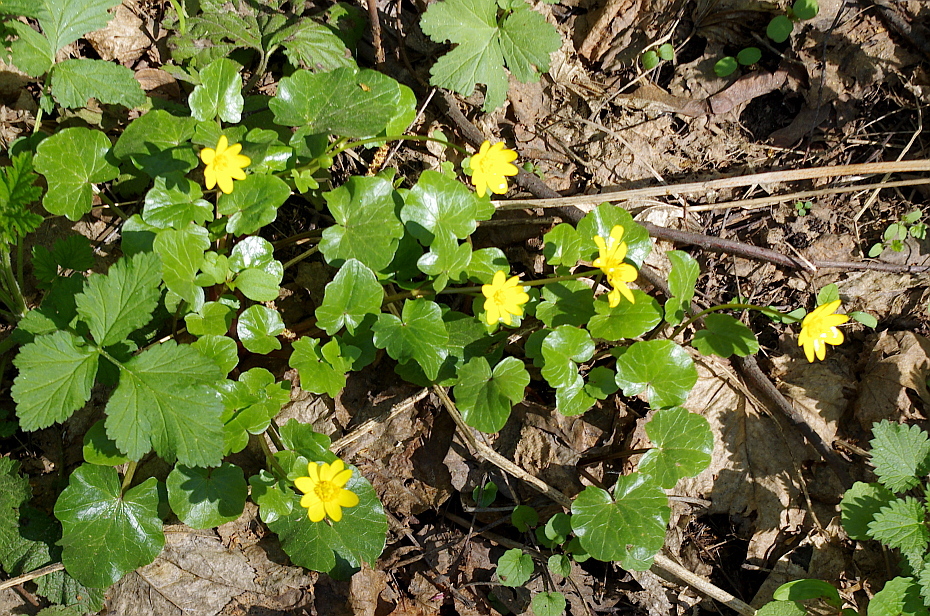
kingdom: Plantae
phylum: Tracheophyta
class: Magnoliopsida
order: Ranunculales
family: Ranunculaceae
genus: Ficaria
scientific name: Ficaria verna
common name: Lesser celandine
